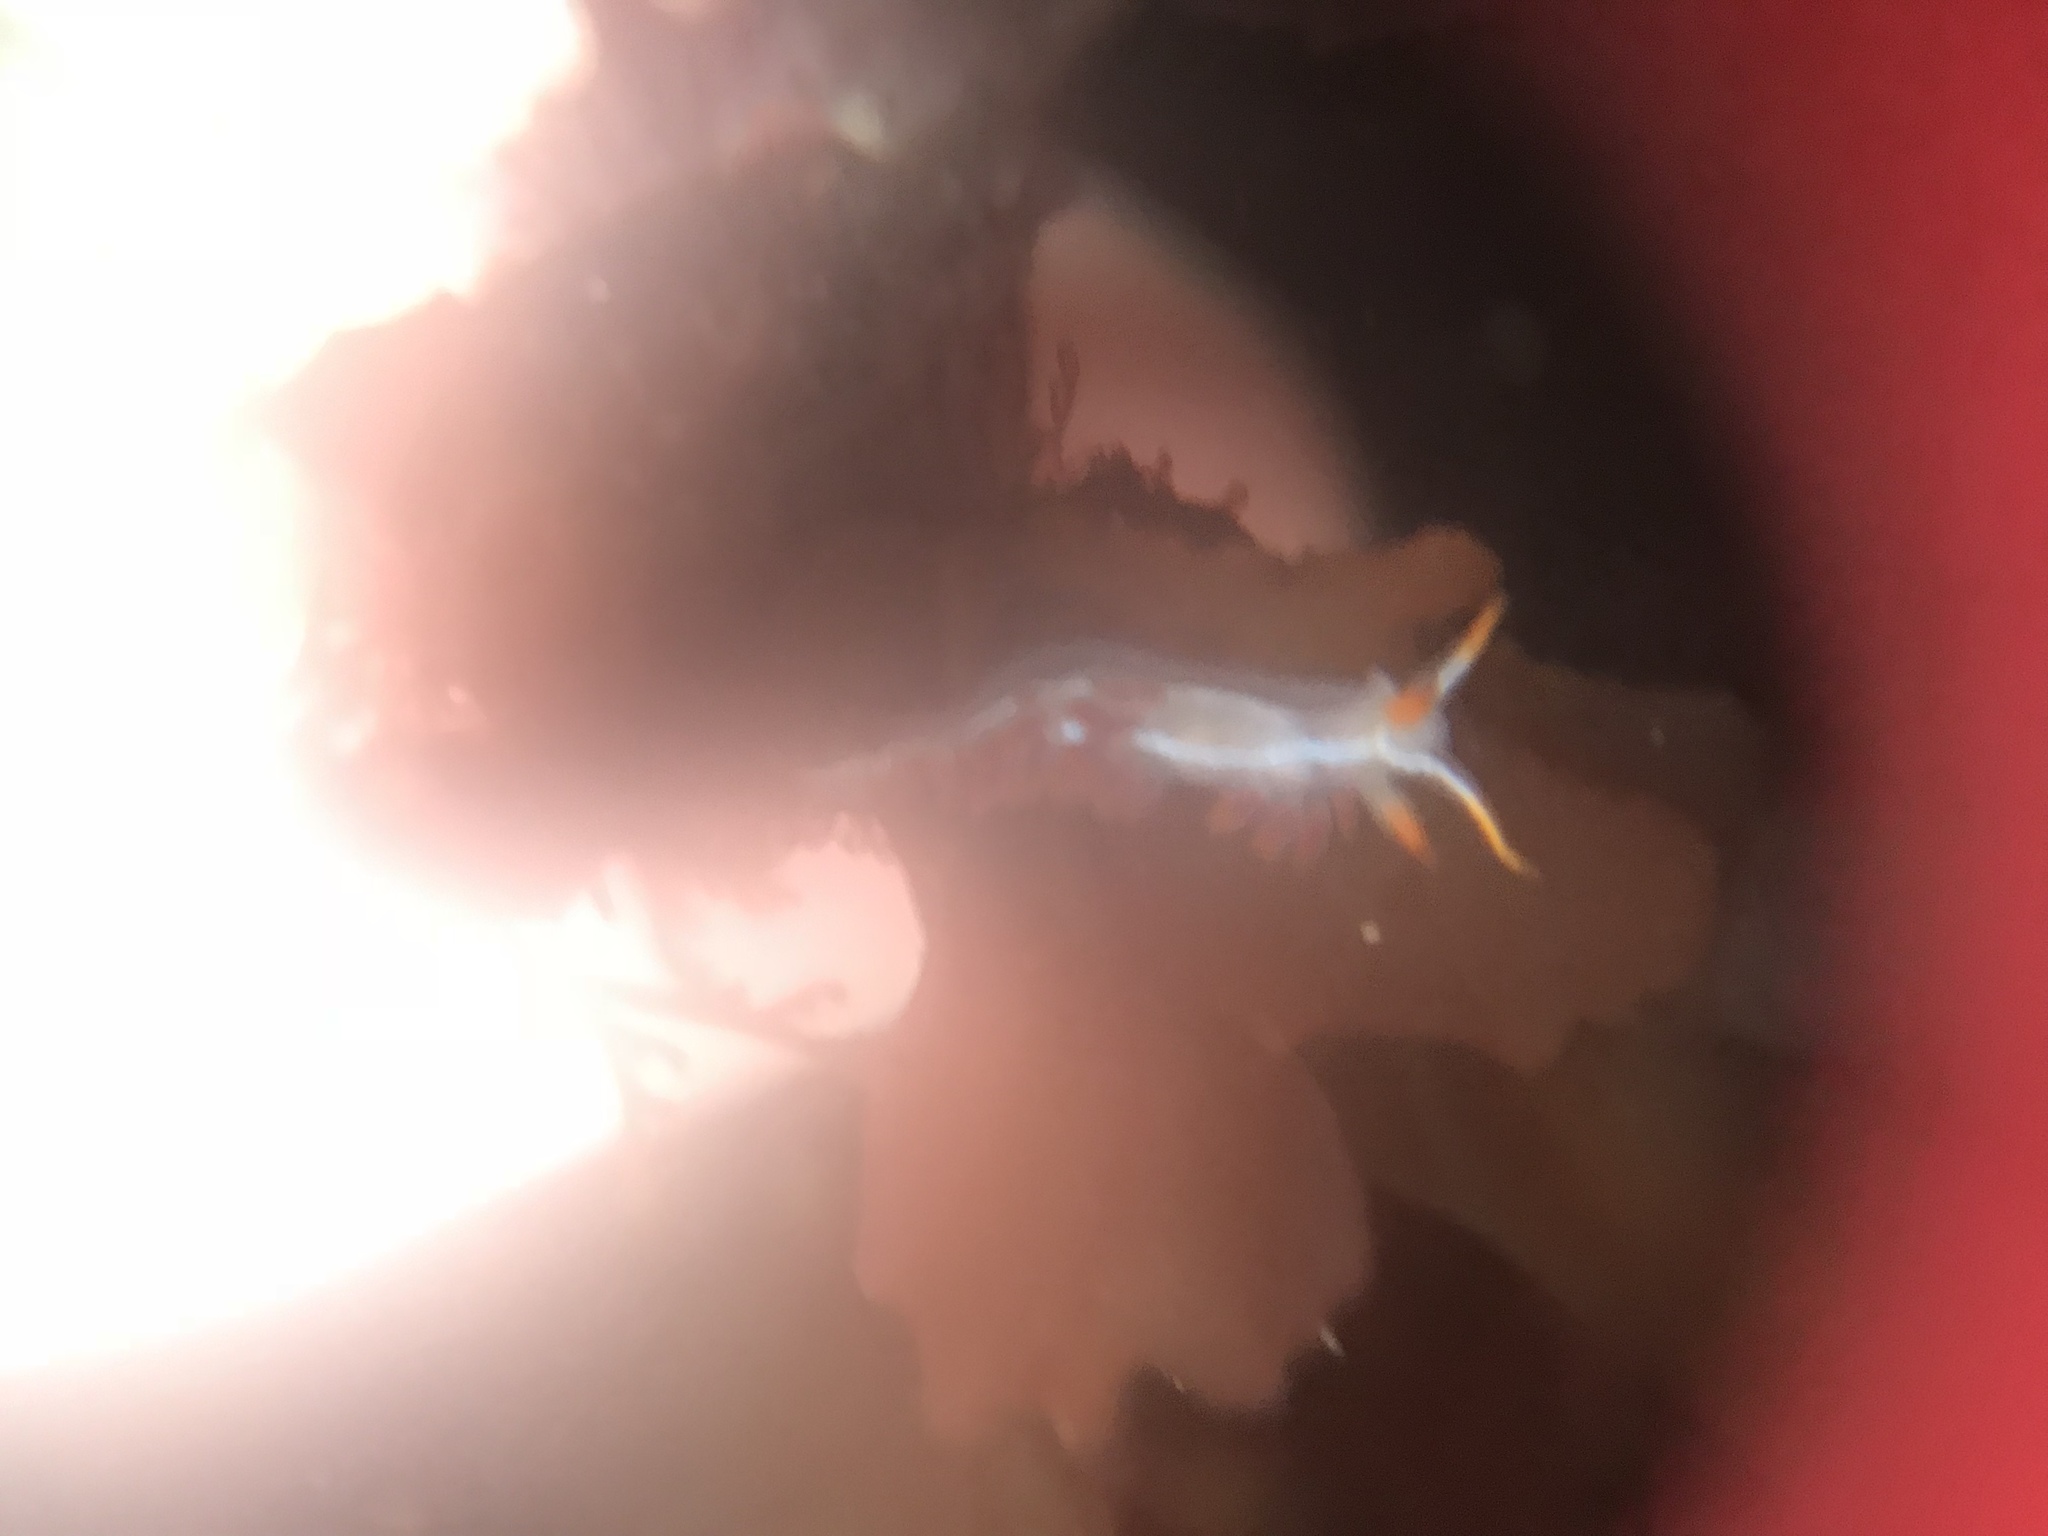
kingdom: Animalia
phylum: Mollusca
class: Gastropoda
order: Nudibranchia
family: Coryphellidae
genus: Coryphella
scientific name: Coryphella trilineata
